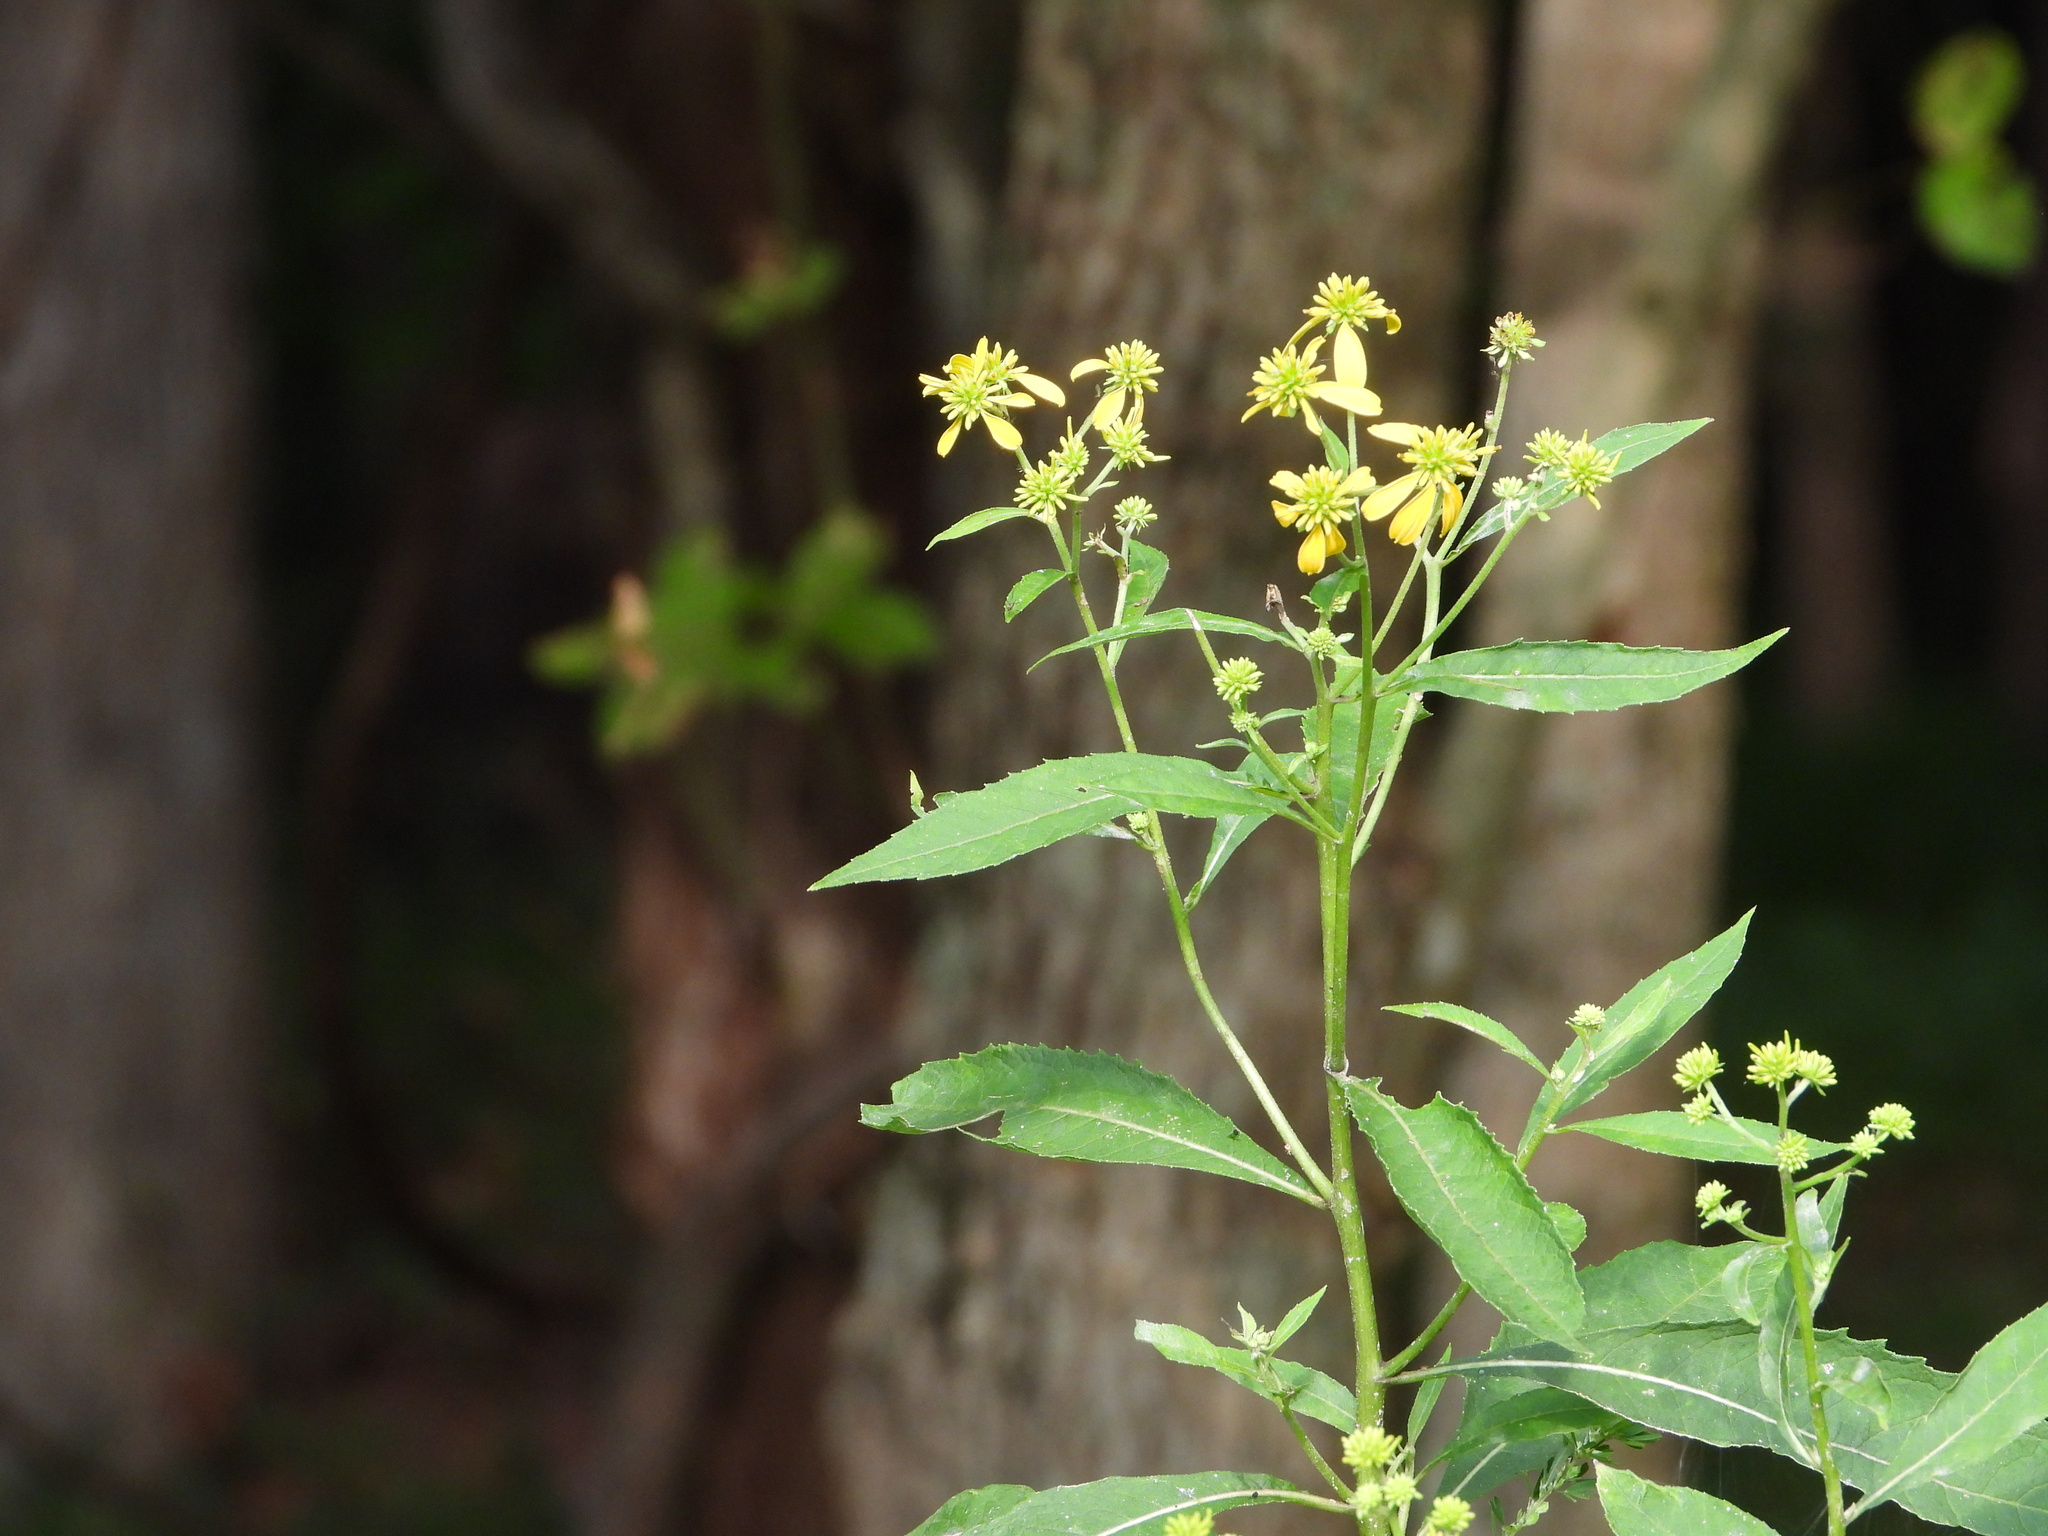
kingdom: Plantae
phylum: Tracheophyta
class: Magnoliopsida
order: Asterales
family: Asteraceae
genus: Verbesina
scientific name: Verbesina alternifolia
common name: Wingstem
